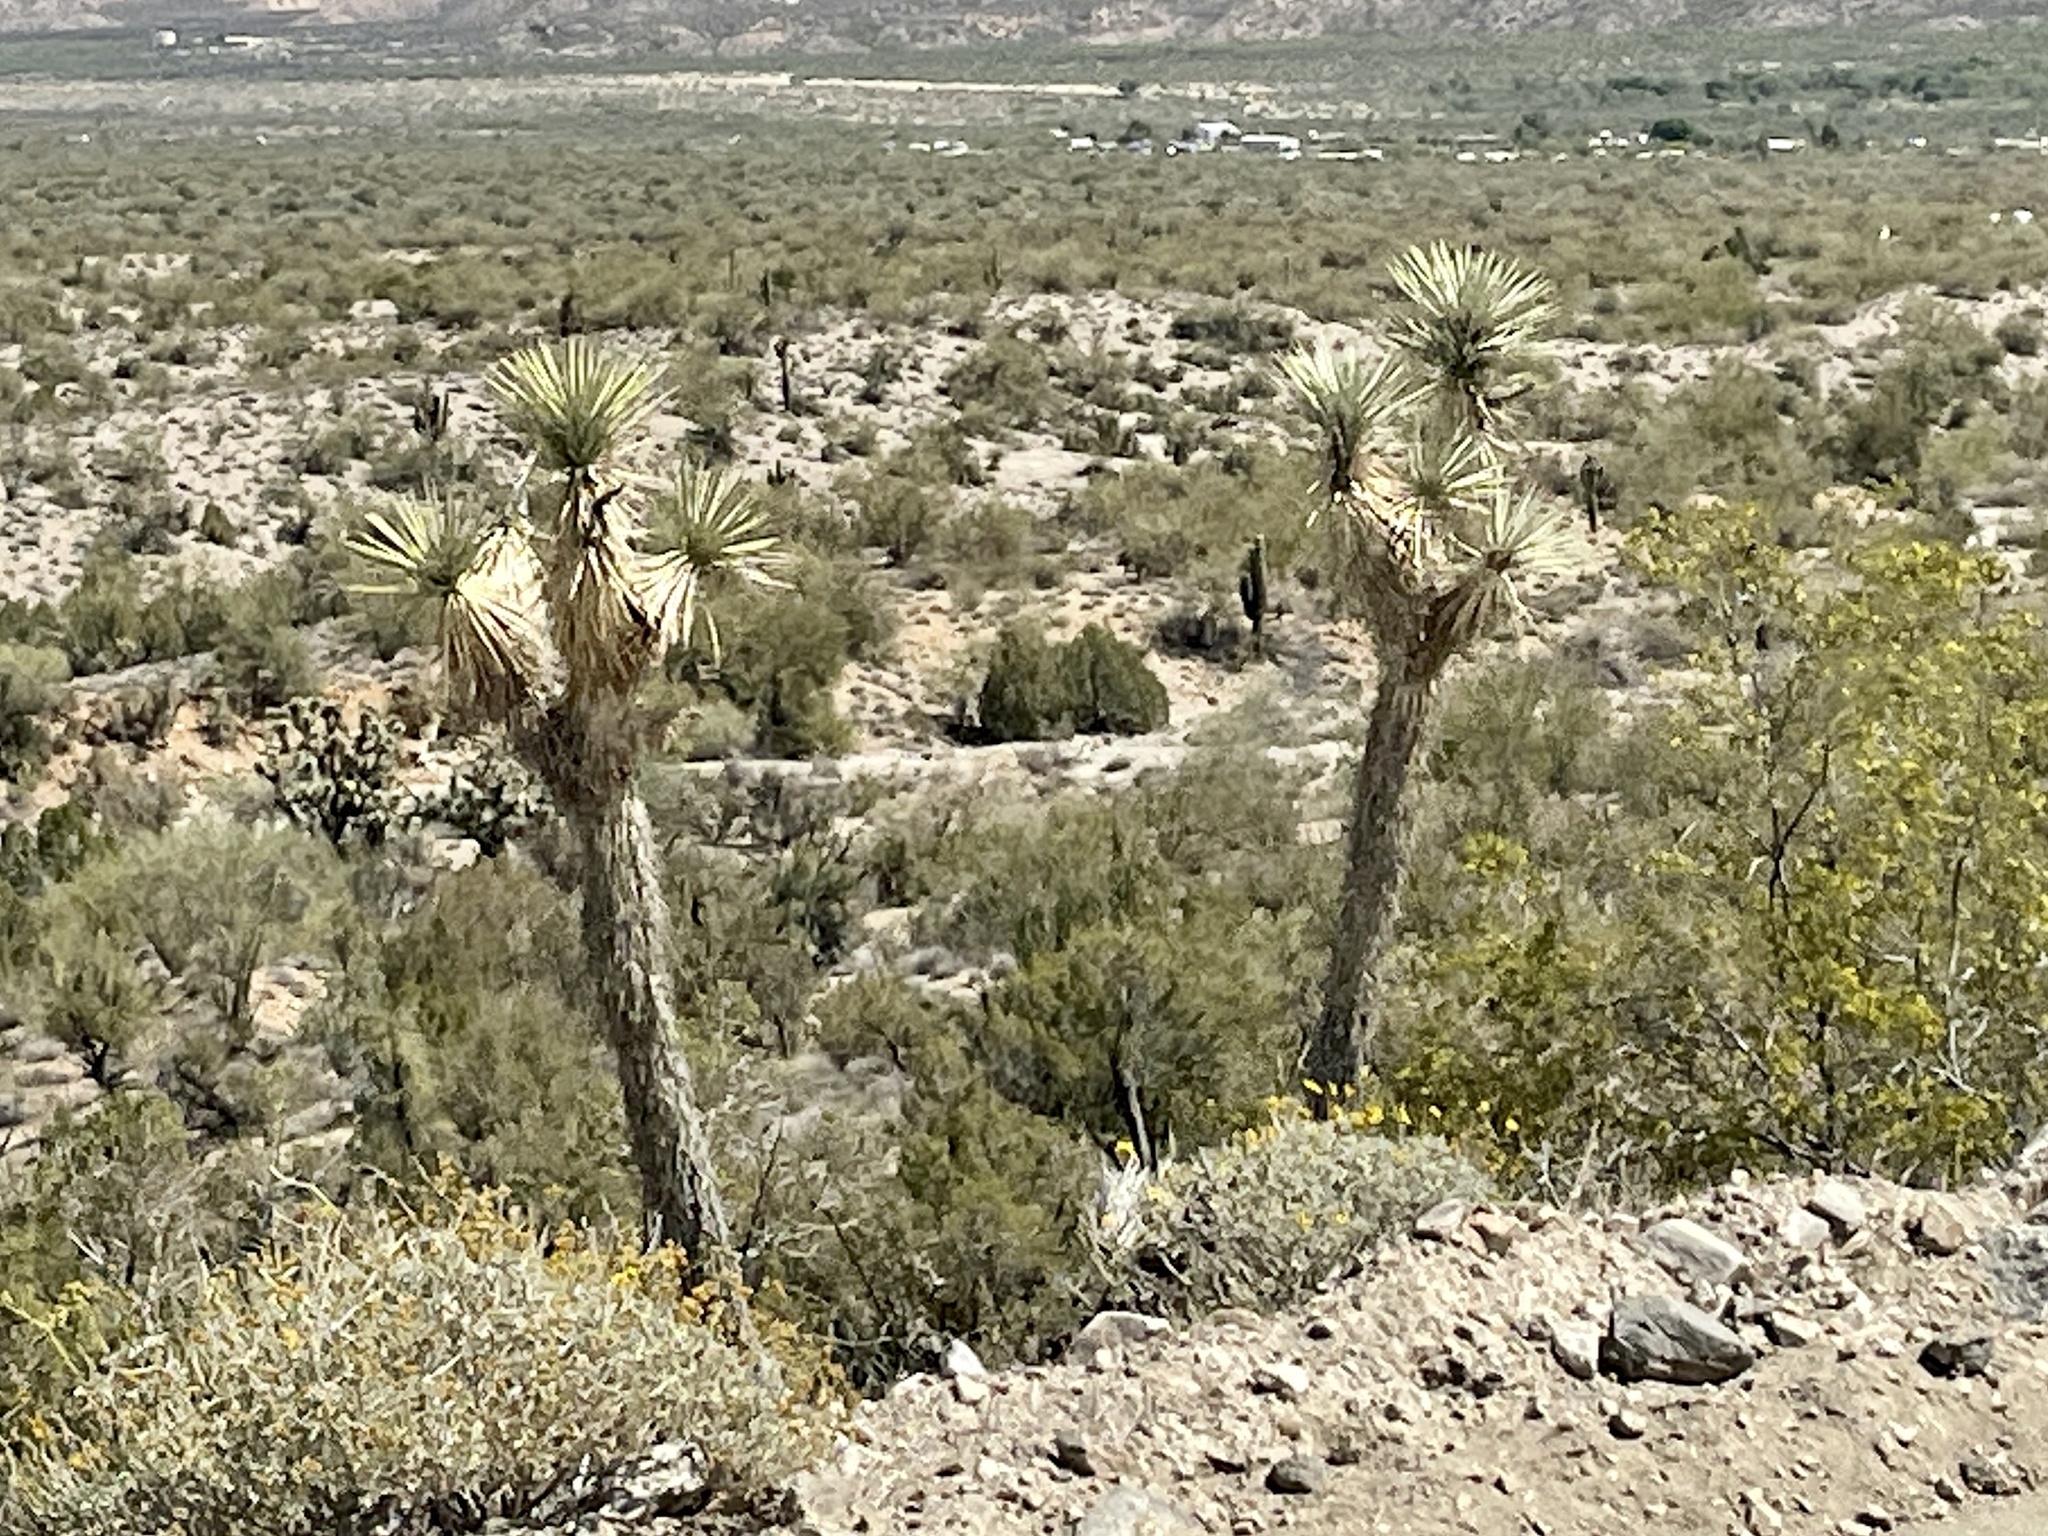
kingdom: Plantae
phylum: Tracheophyta
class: Liliopsida
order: Asparagales
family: Asparagaceae
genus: Yucca
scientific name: Yucca brevifolia
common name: Joshua tree
